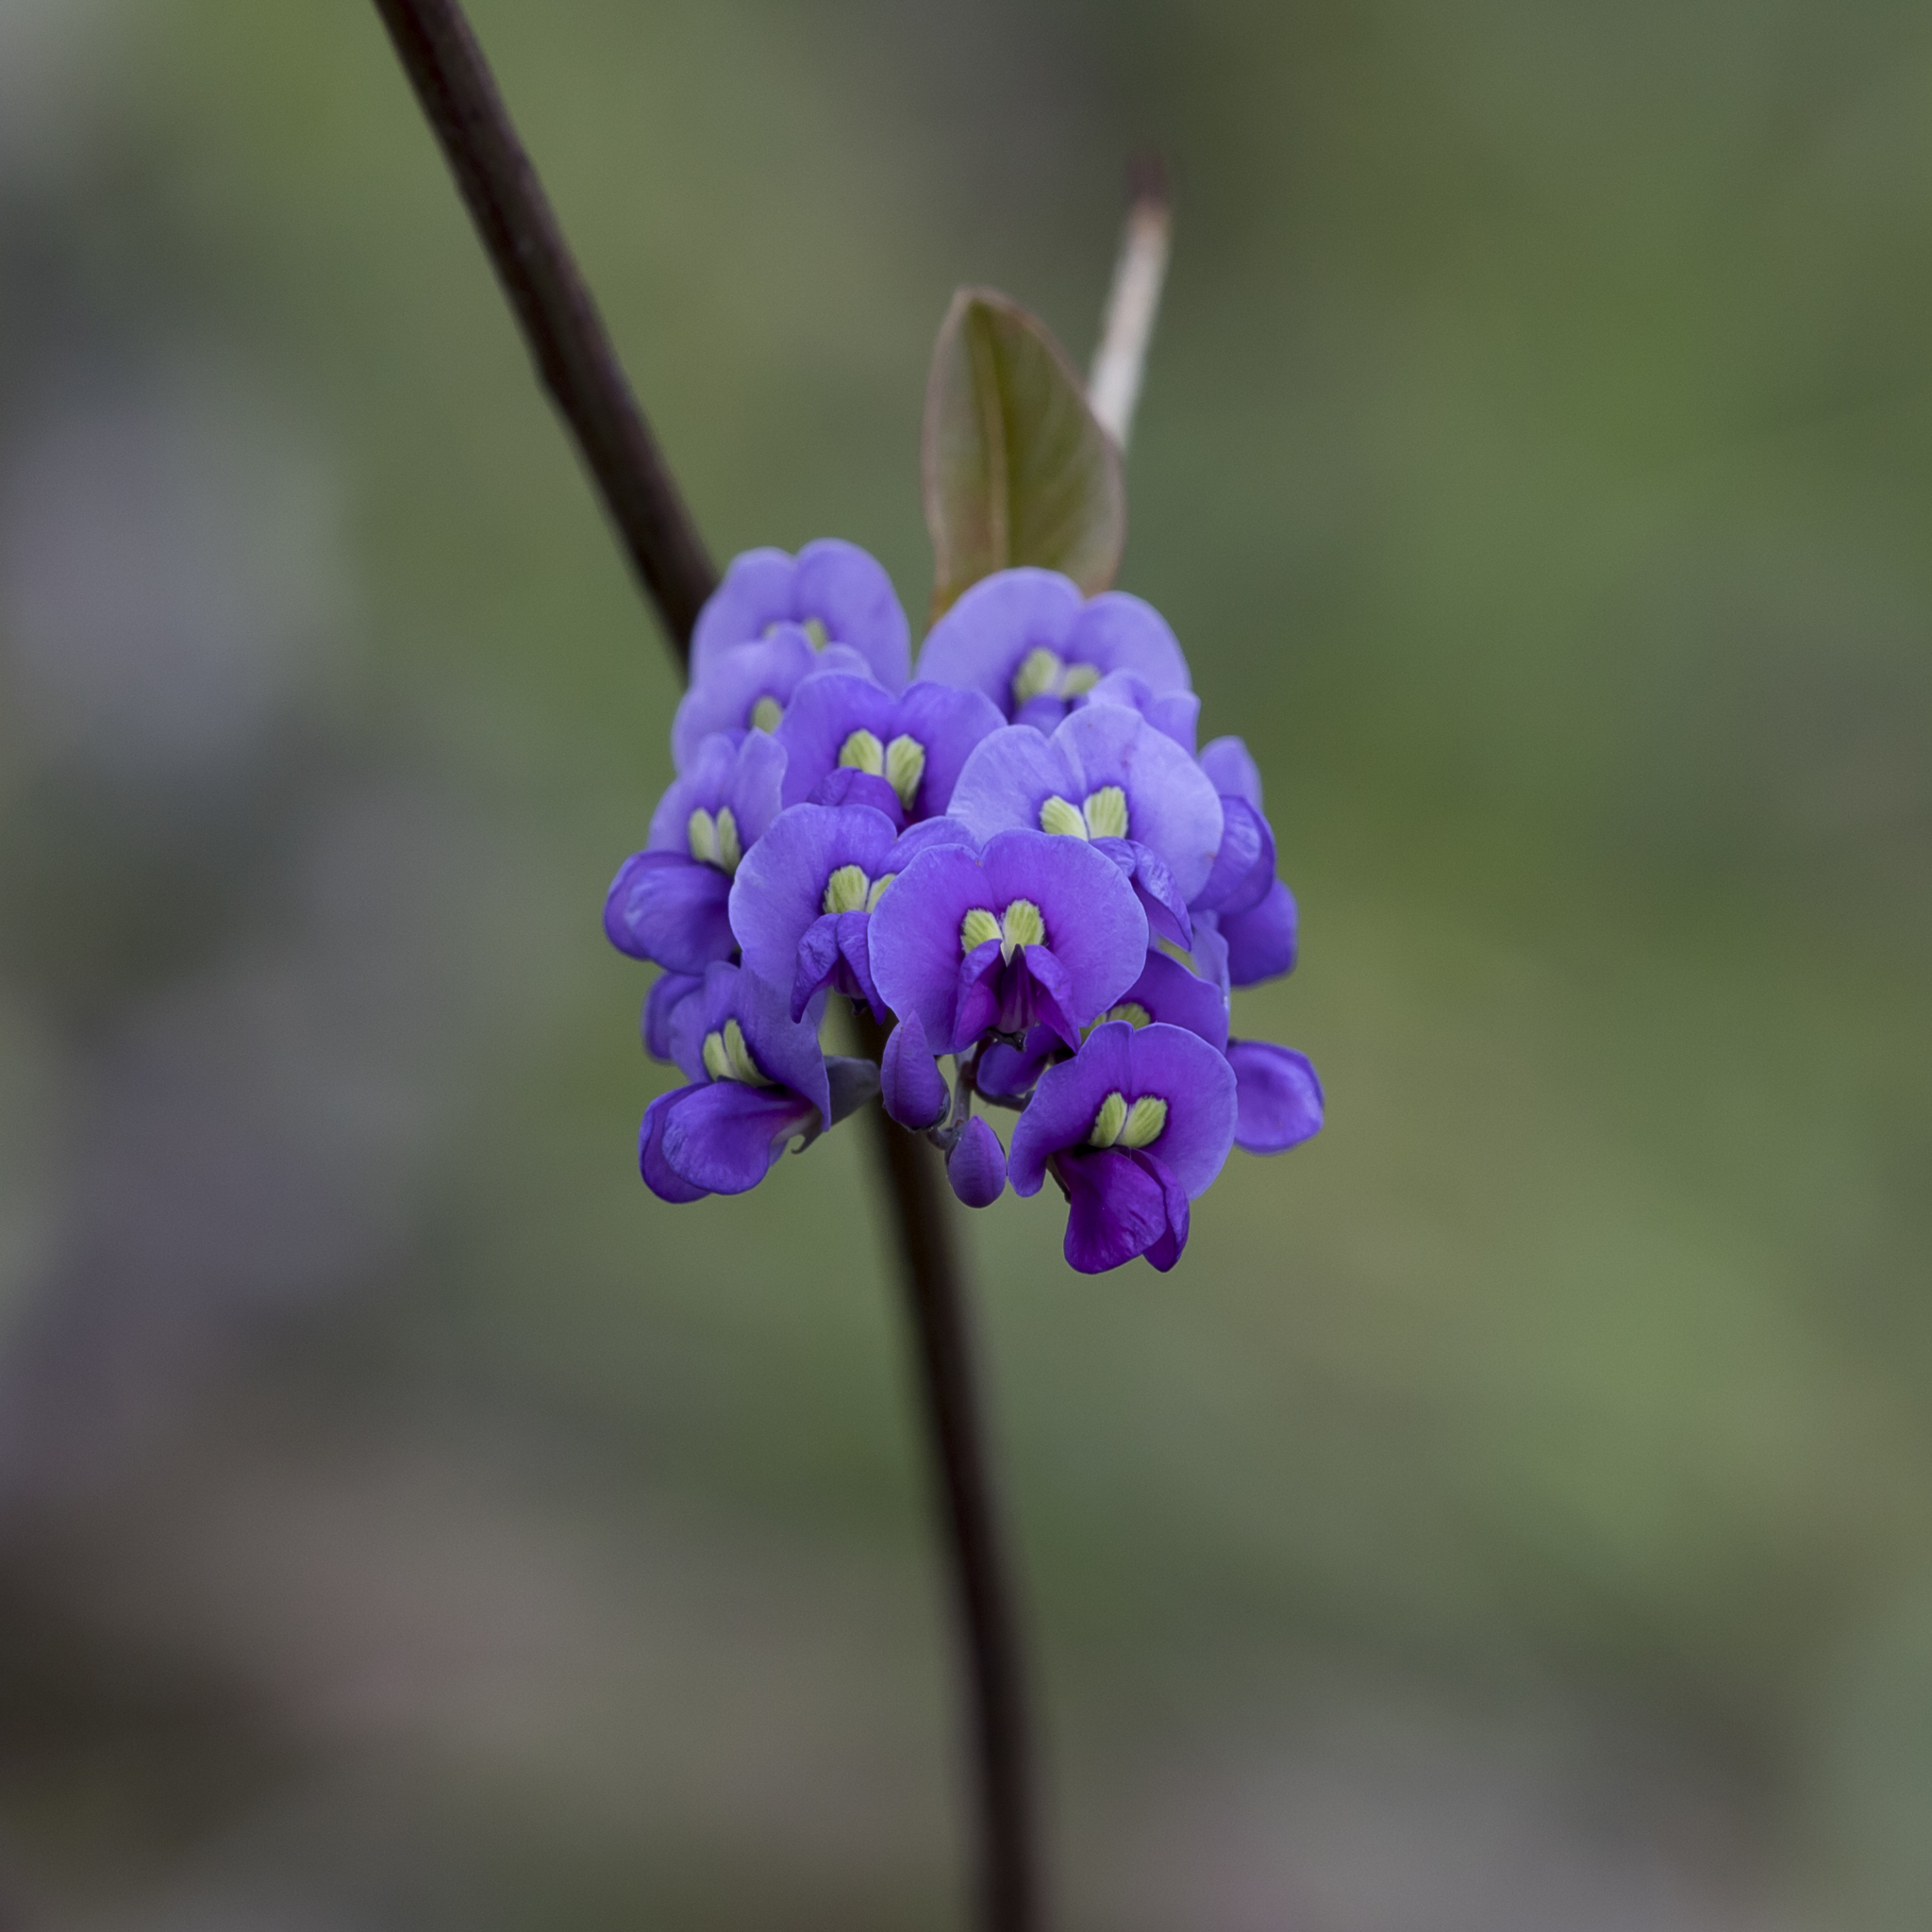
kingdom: Plantae
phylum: Tracheophyta
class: Magnoliopsida
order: Fabales
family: Fabaceae
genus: Hardenbergia
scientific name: Hardenbergia violacea
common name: Coral-pea
